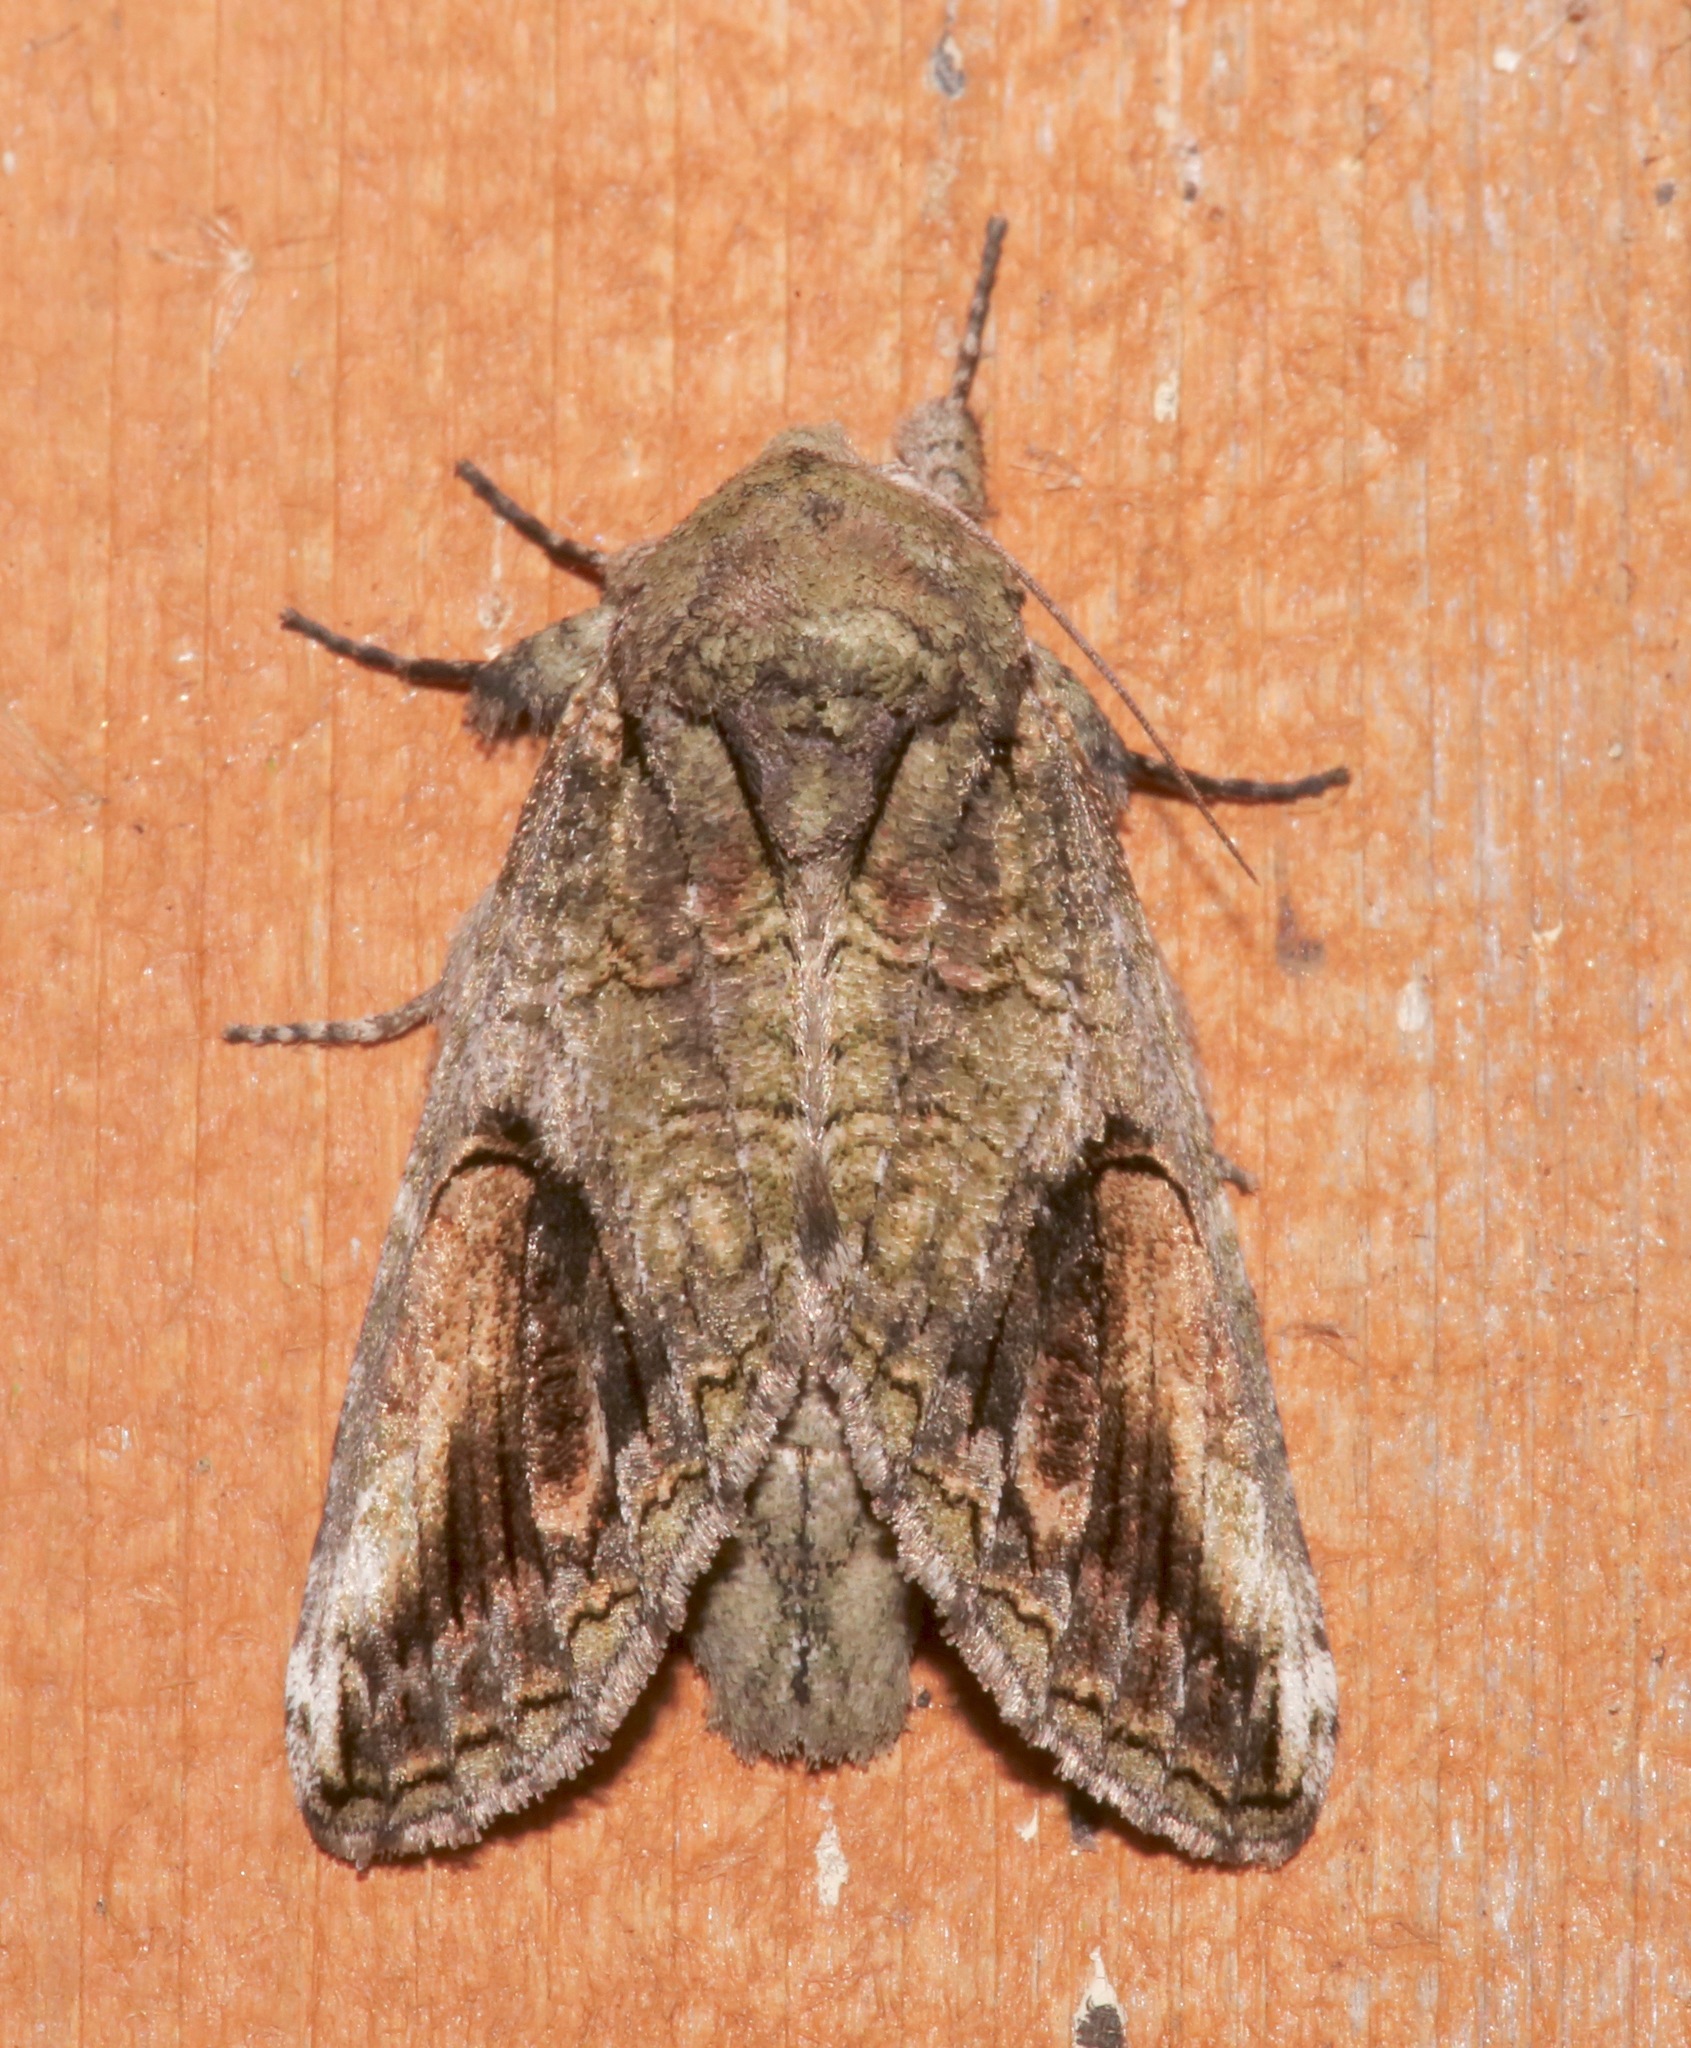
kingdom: Animalia
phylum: Arthropoda
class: Insecta
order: Lepidoptera
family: Notodontidae
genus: Heterocampa
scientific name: Heterocampa obliqua
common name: Oblique heterocampa
